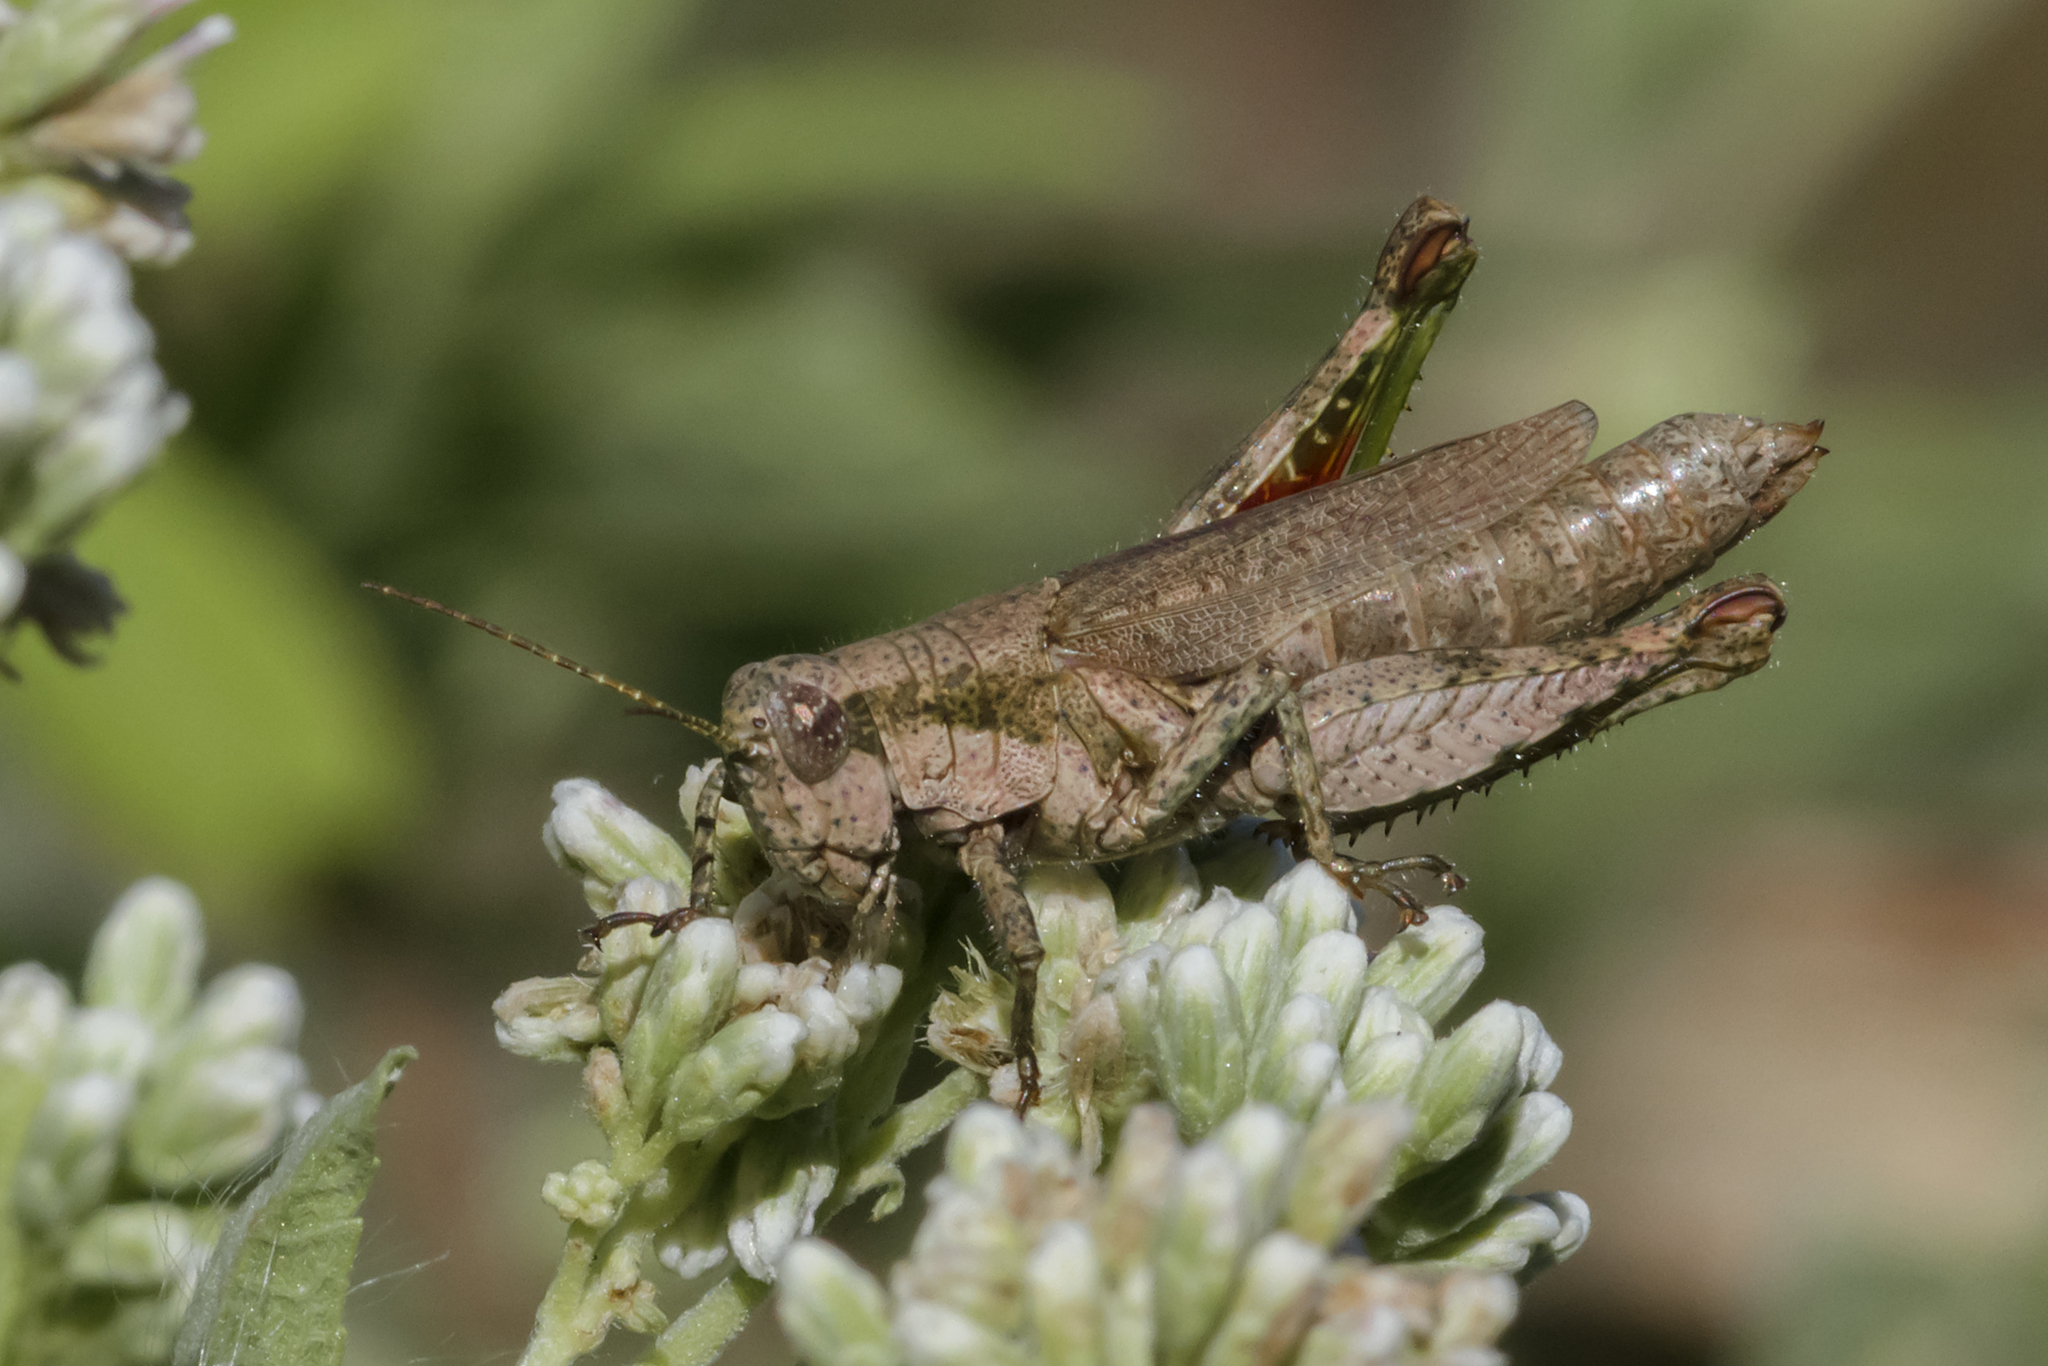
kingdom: Animalia
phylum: Arthropoda
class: Insecta
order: Orthoptera
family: Acrididae
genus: Ronderosia
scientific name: Ronderosia bergii
